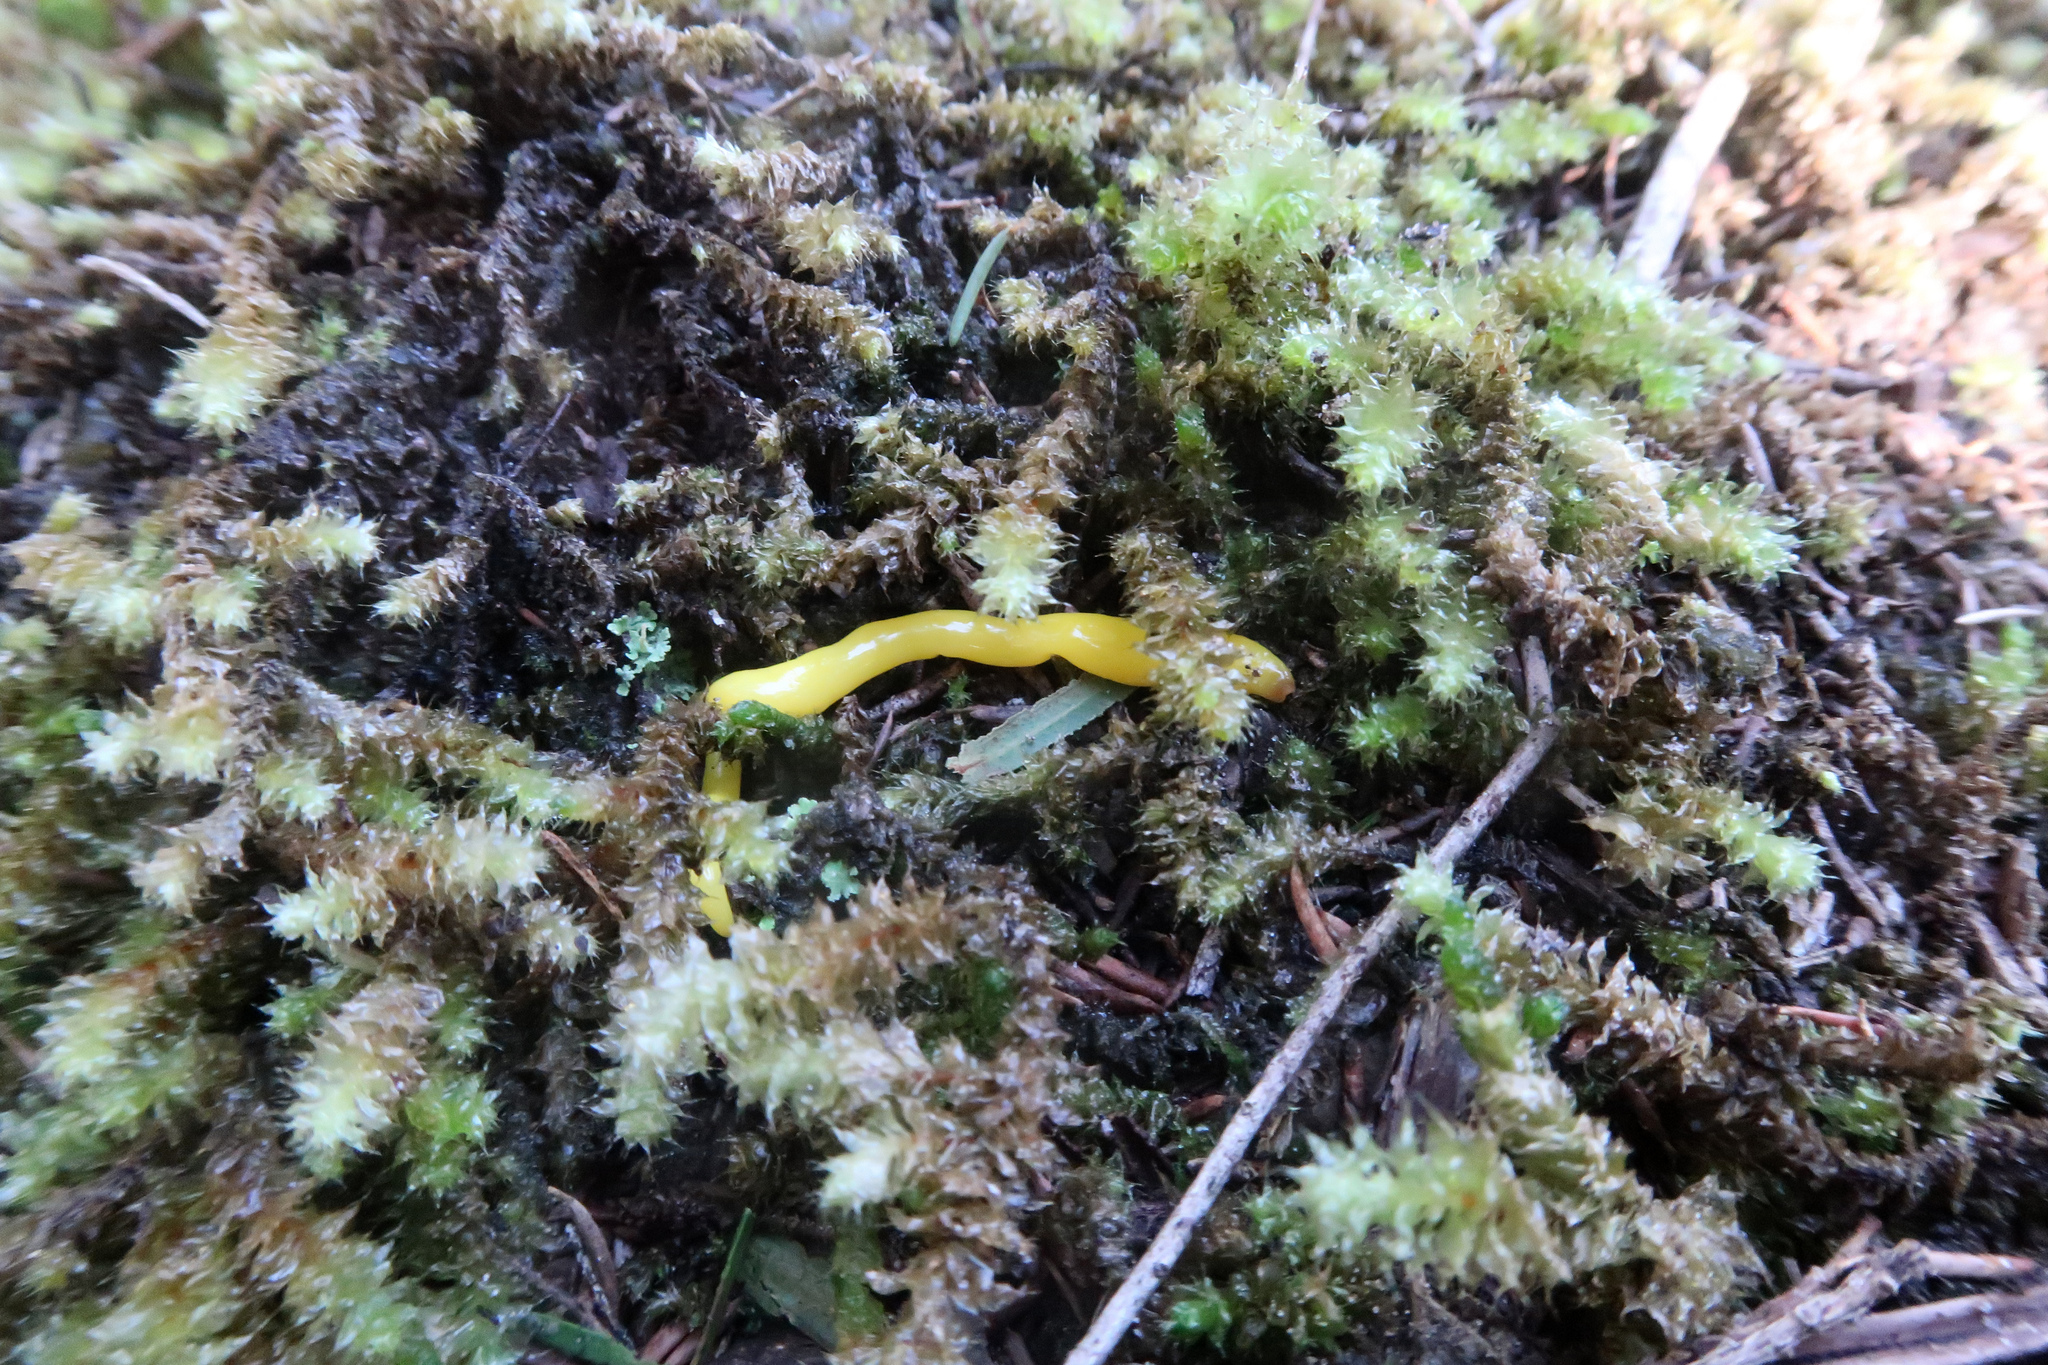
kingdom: Animalia
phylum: Platyhelminthes
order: Tricladida
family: Geoplanidae
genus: Fletchamia
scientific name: Fletchamia sugdeni
